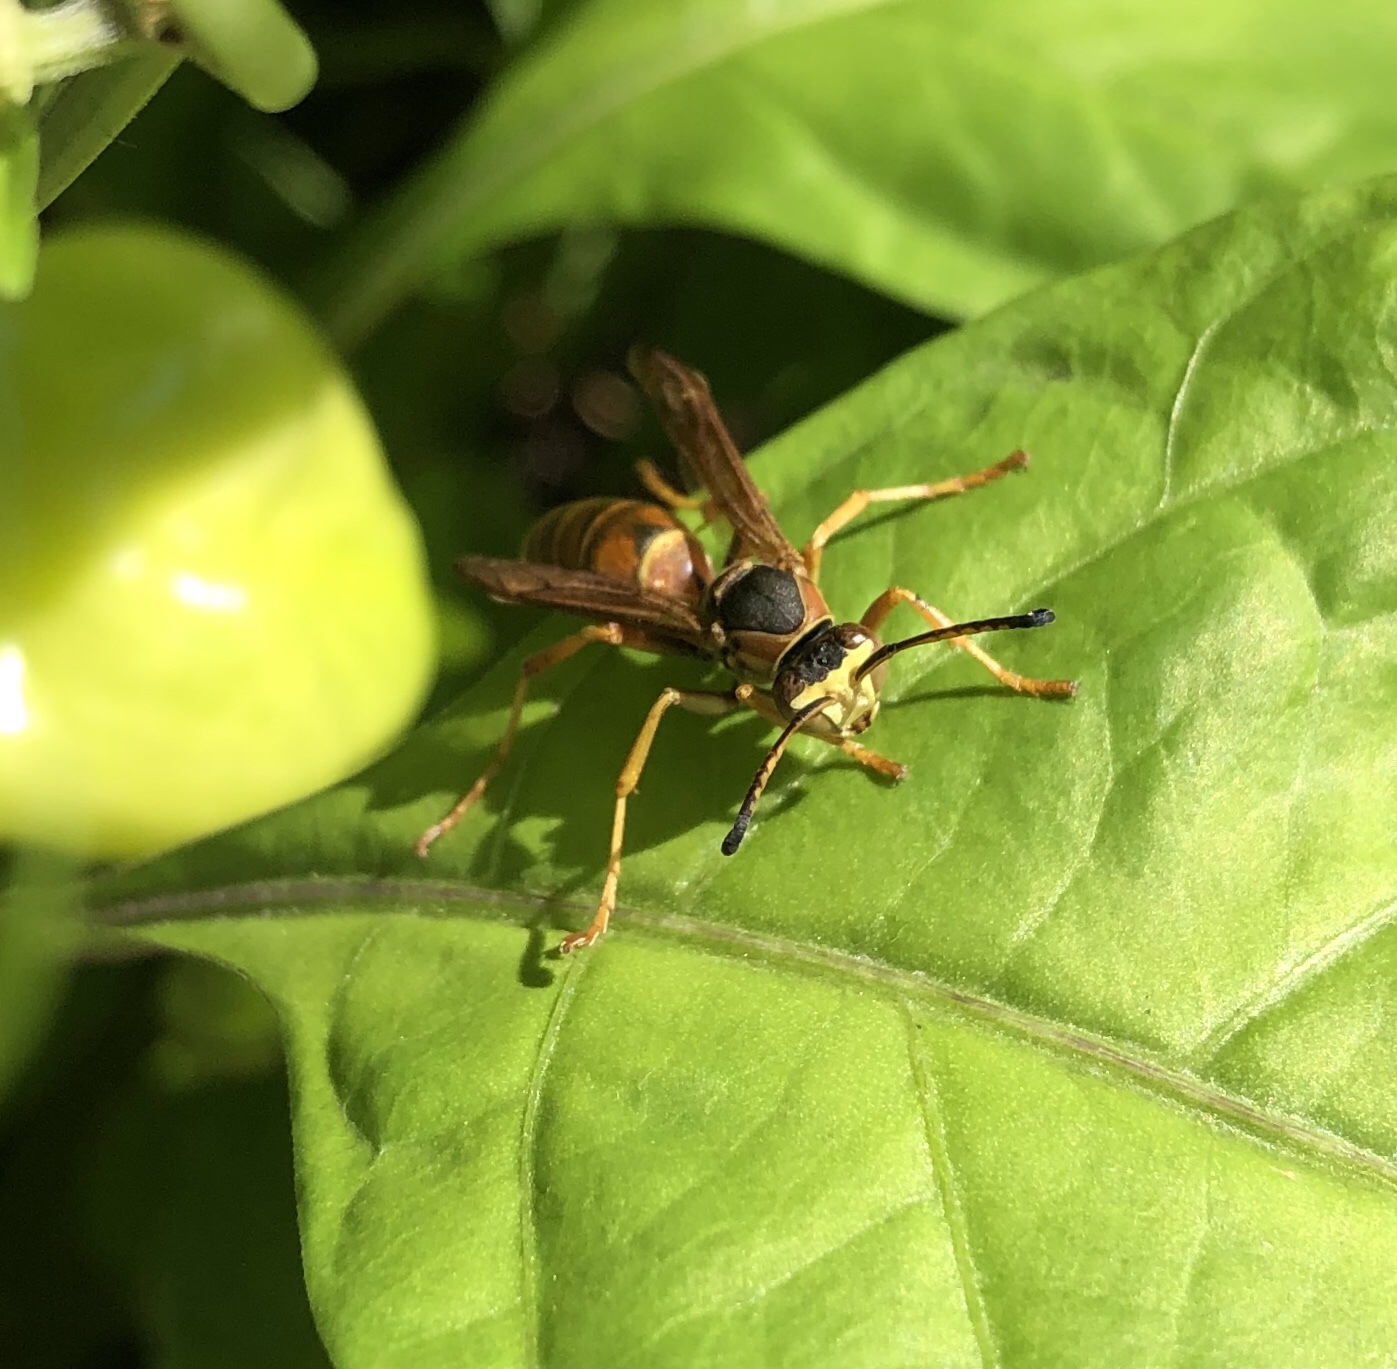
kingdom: Animalia
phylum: Arthropoda
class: Insecta
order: Hymenoptera
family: Eumenidae
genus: Polistes
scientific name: Polistes fuscatus
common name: Dark paper wasp
